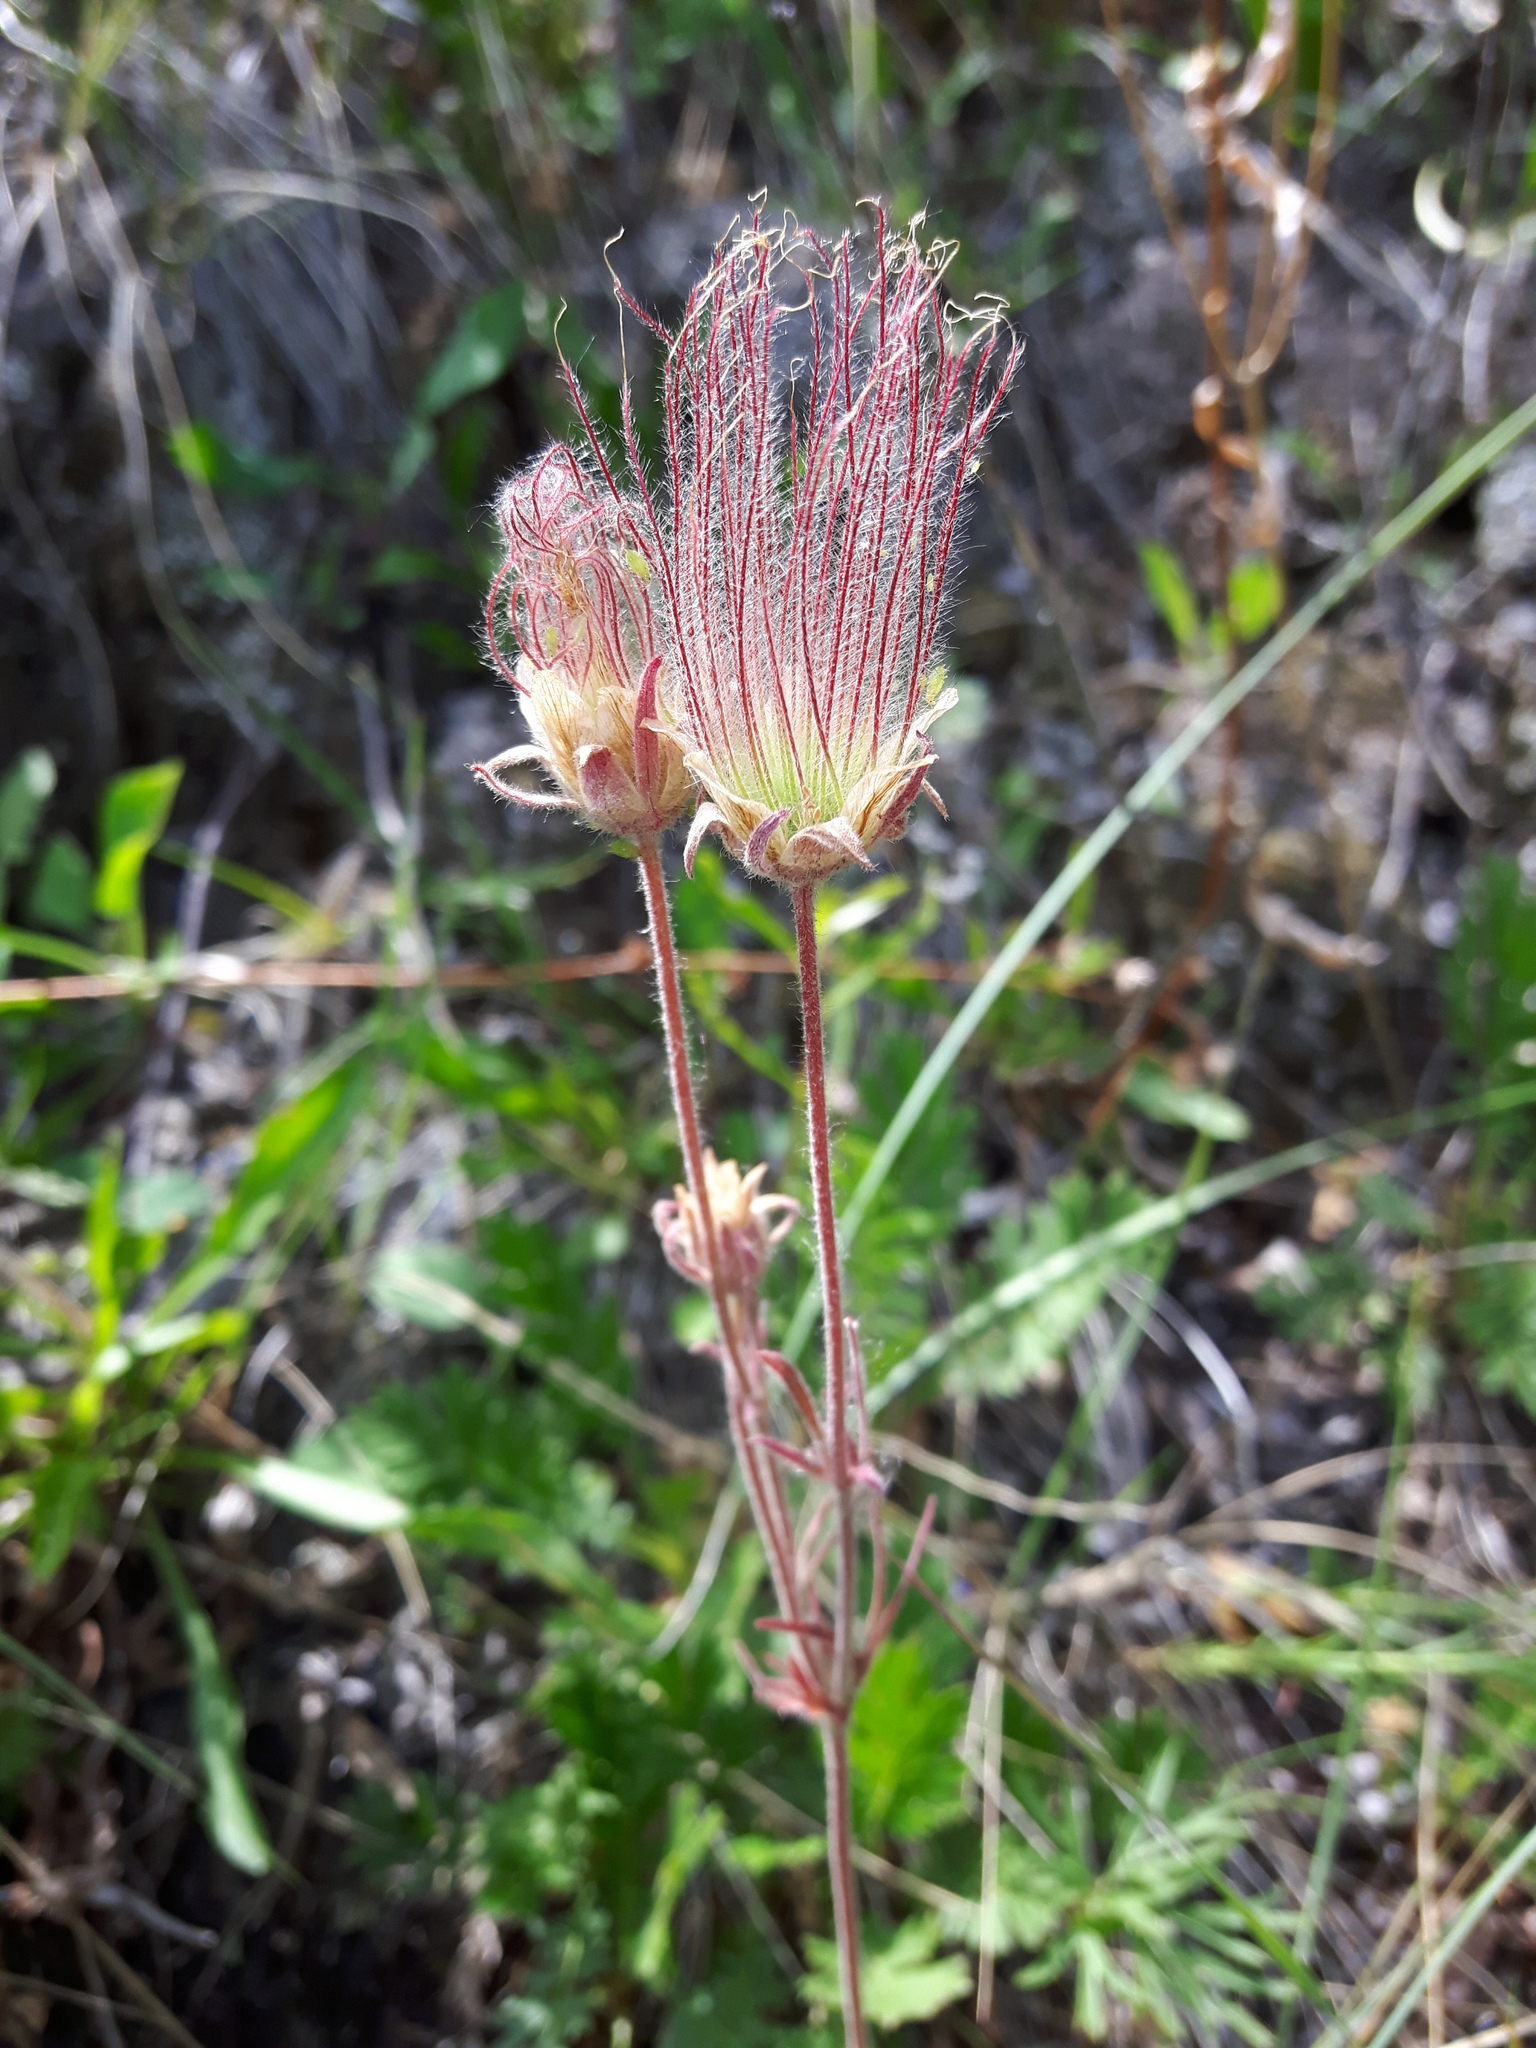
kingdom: Plantae
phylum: Tracheophyta
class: Magnoliopsida
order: Rosales
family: Rosaceae
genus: Geum
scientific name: Geum triflorum
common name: Old man's whiskers
